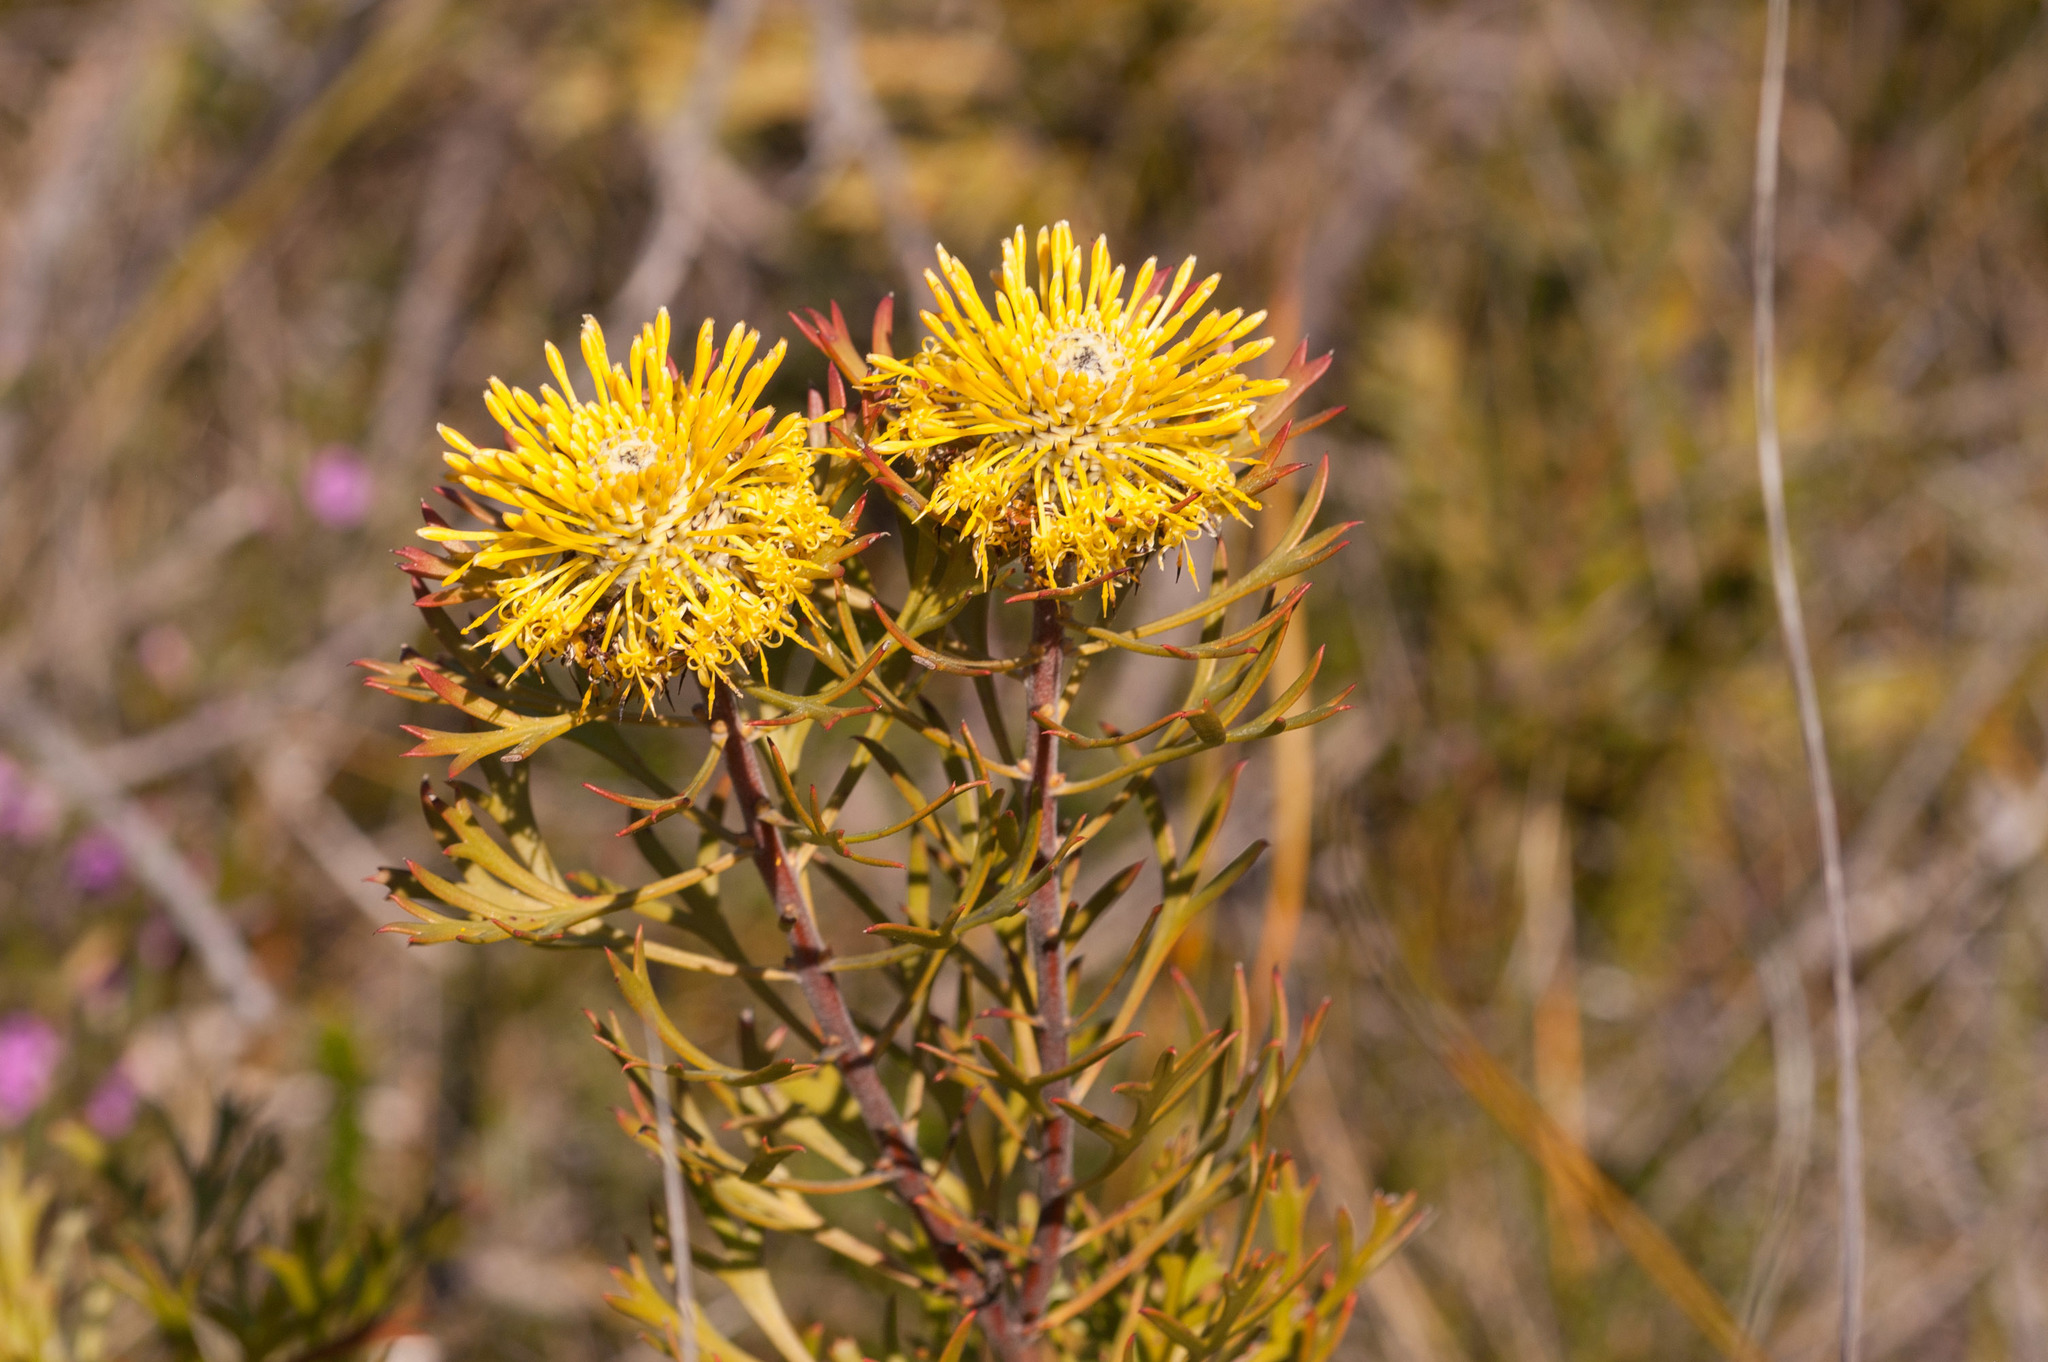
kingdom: Plantae
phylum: Tracheophyta
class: Magnoliopsida
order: Proteales
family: Proteaceae
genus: Isopogon
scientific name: Isopogon anemonifolius
